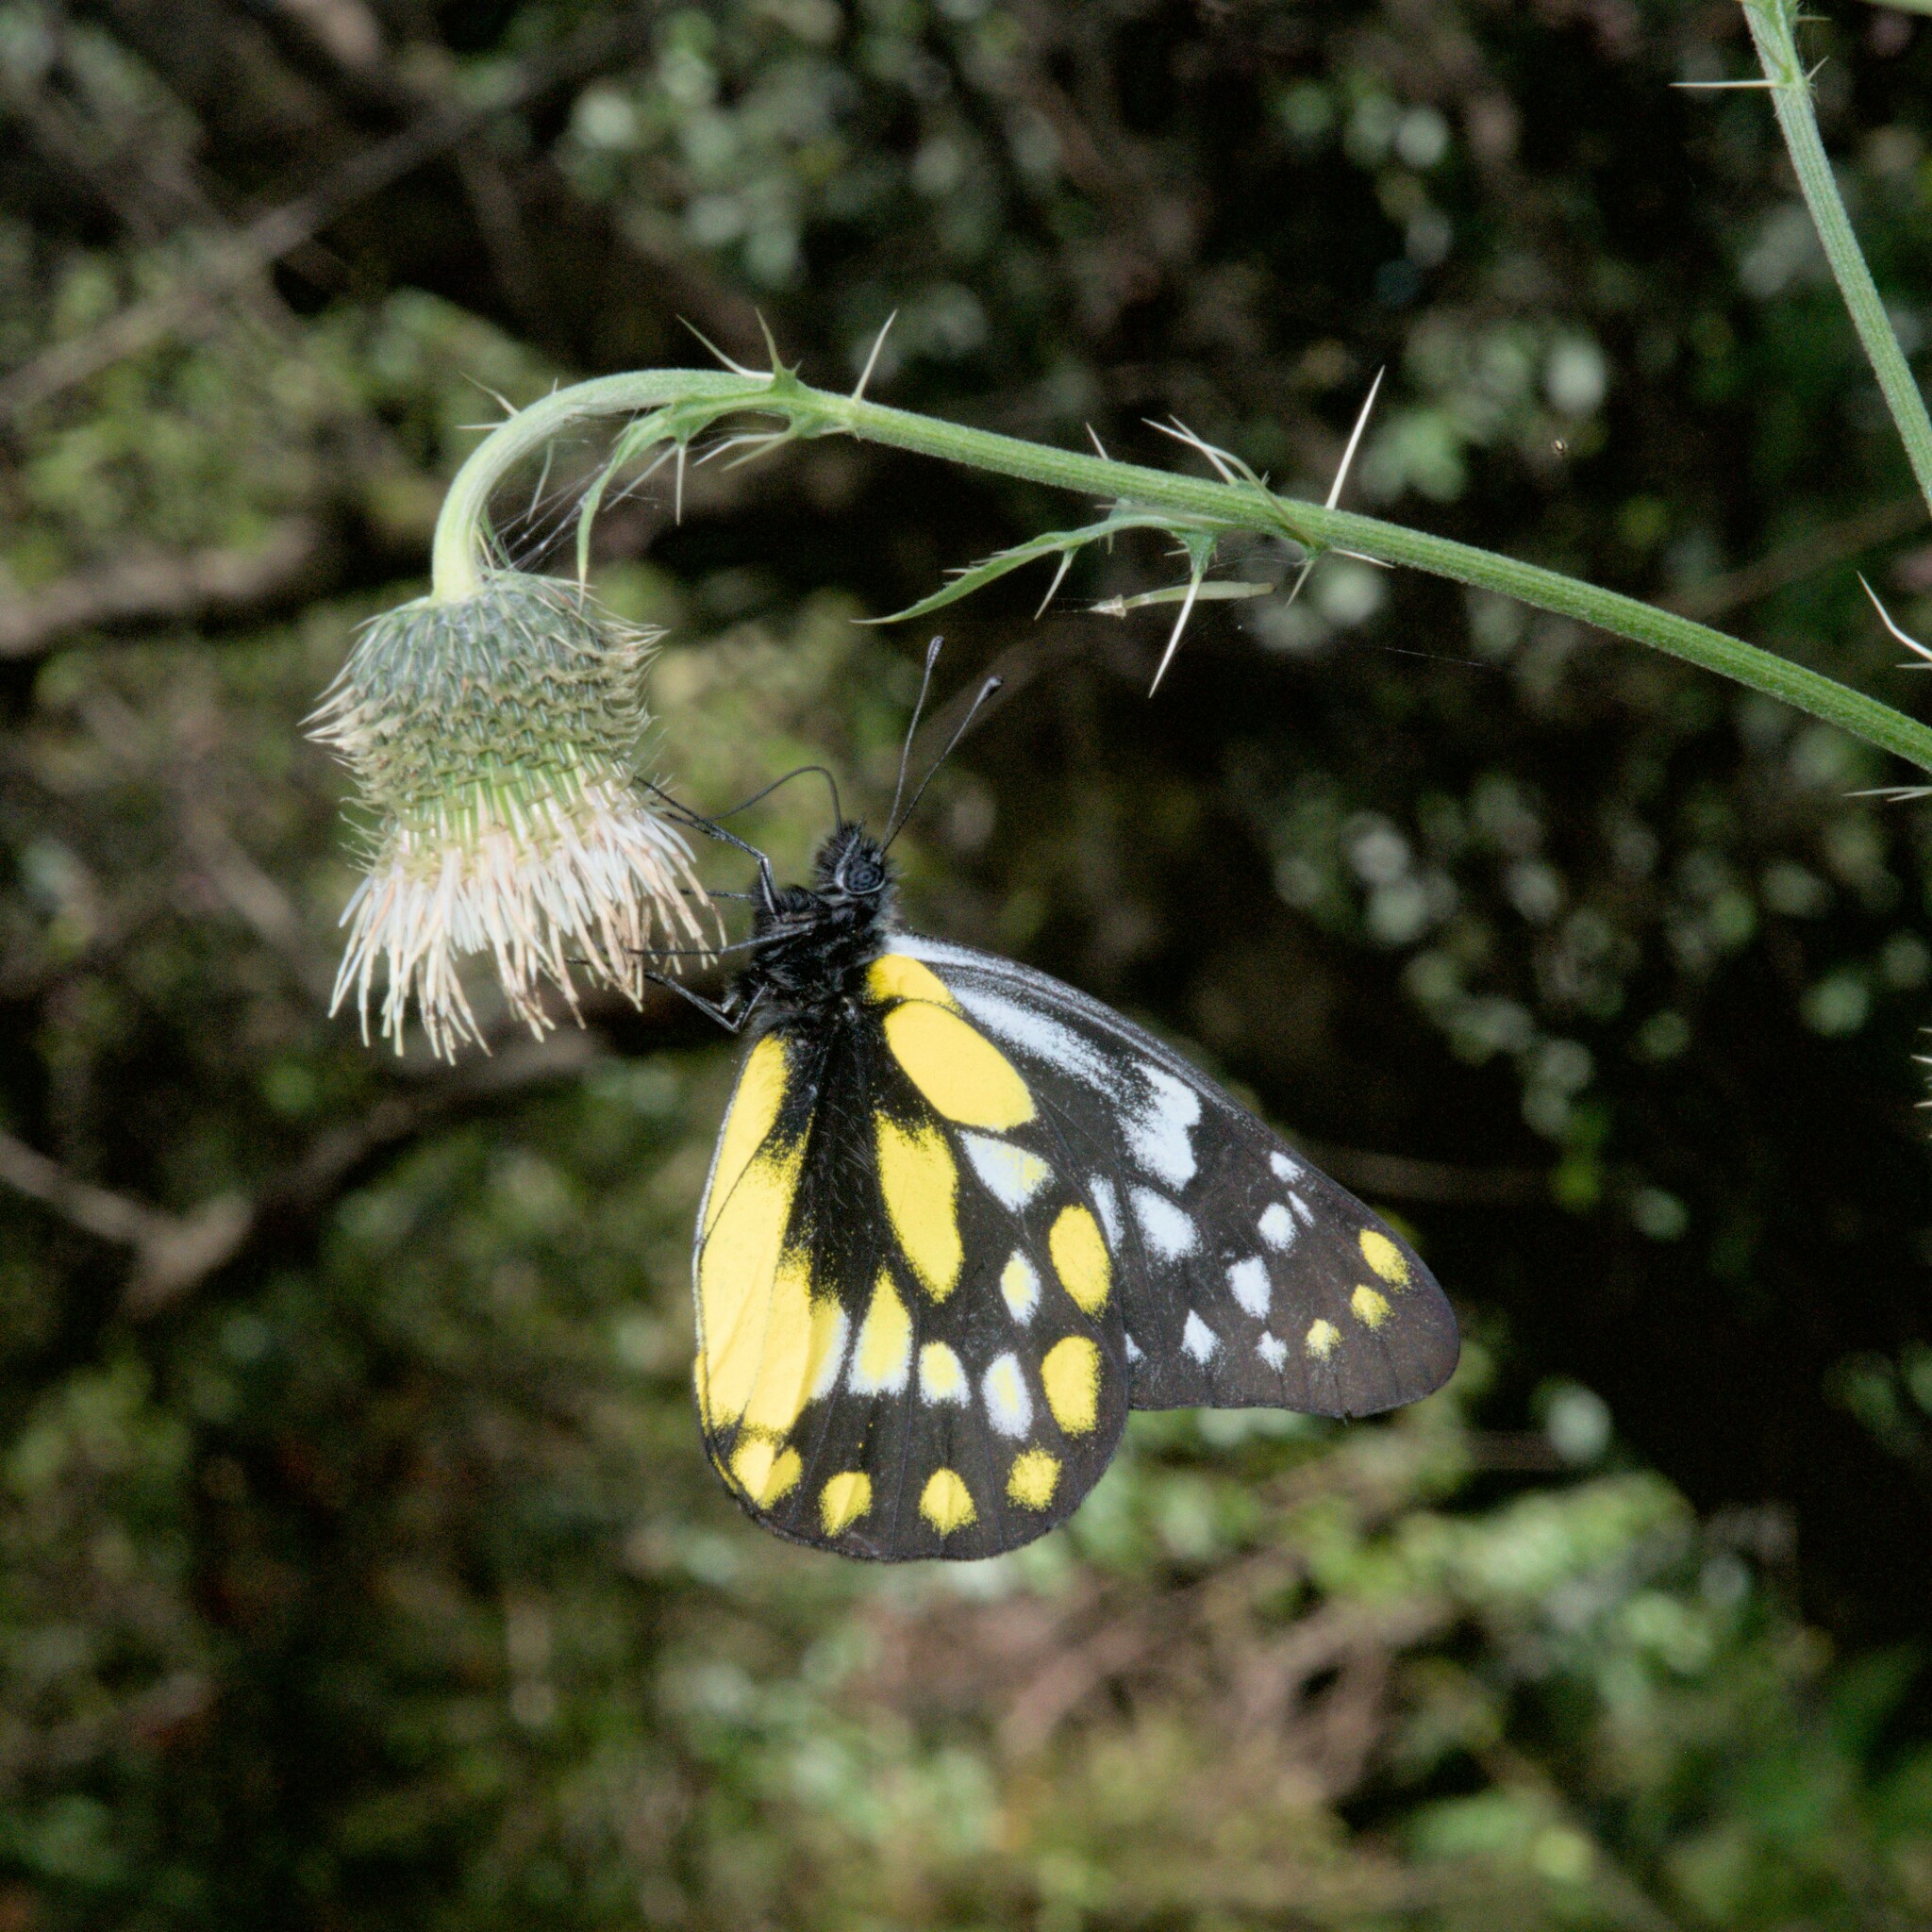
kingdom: Animalia
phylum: Arthropoda
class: Insecta
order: Lepidoptera
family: Pieridae
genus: Delias
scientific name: Delias belladonna
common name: Hill jezebel
